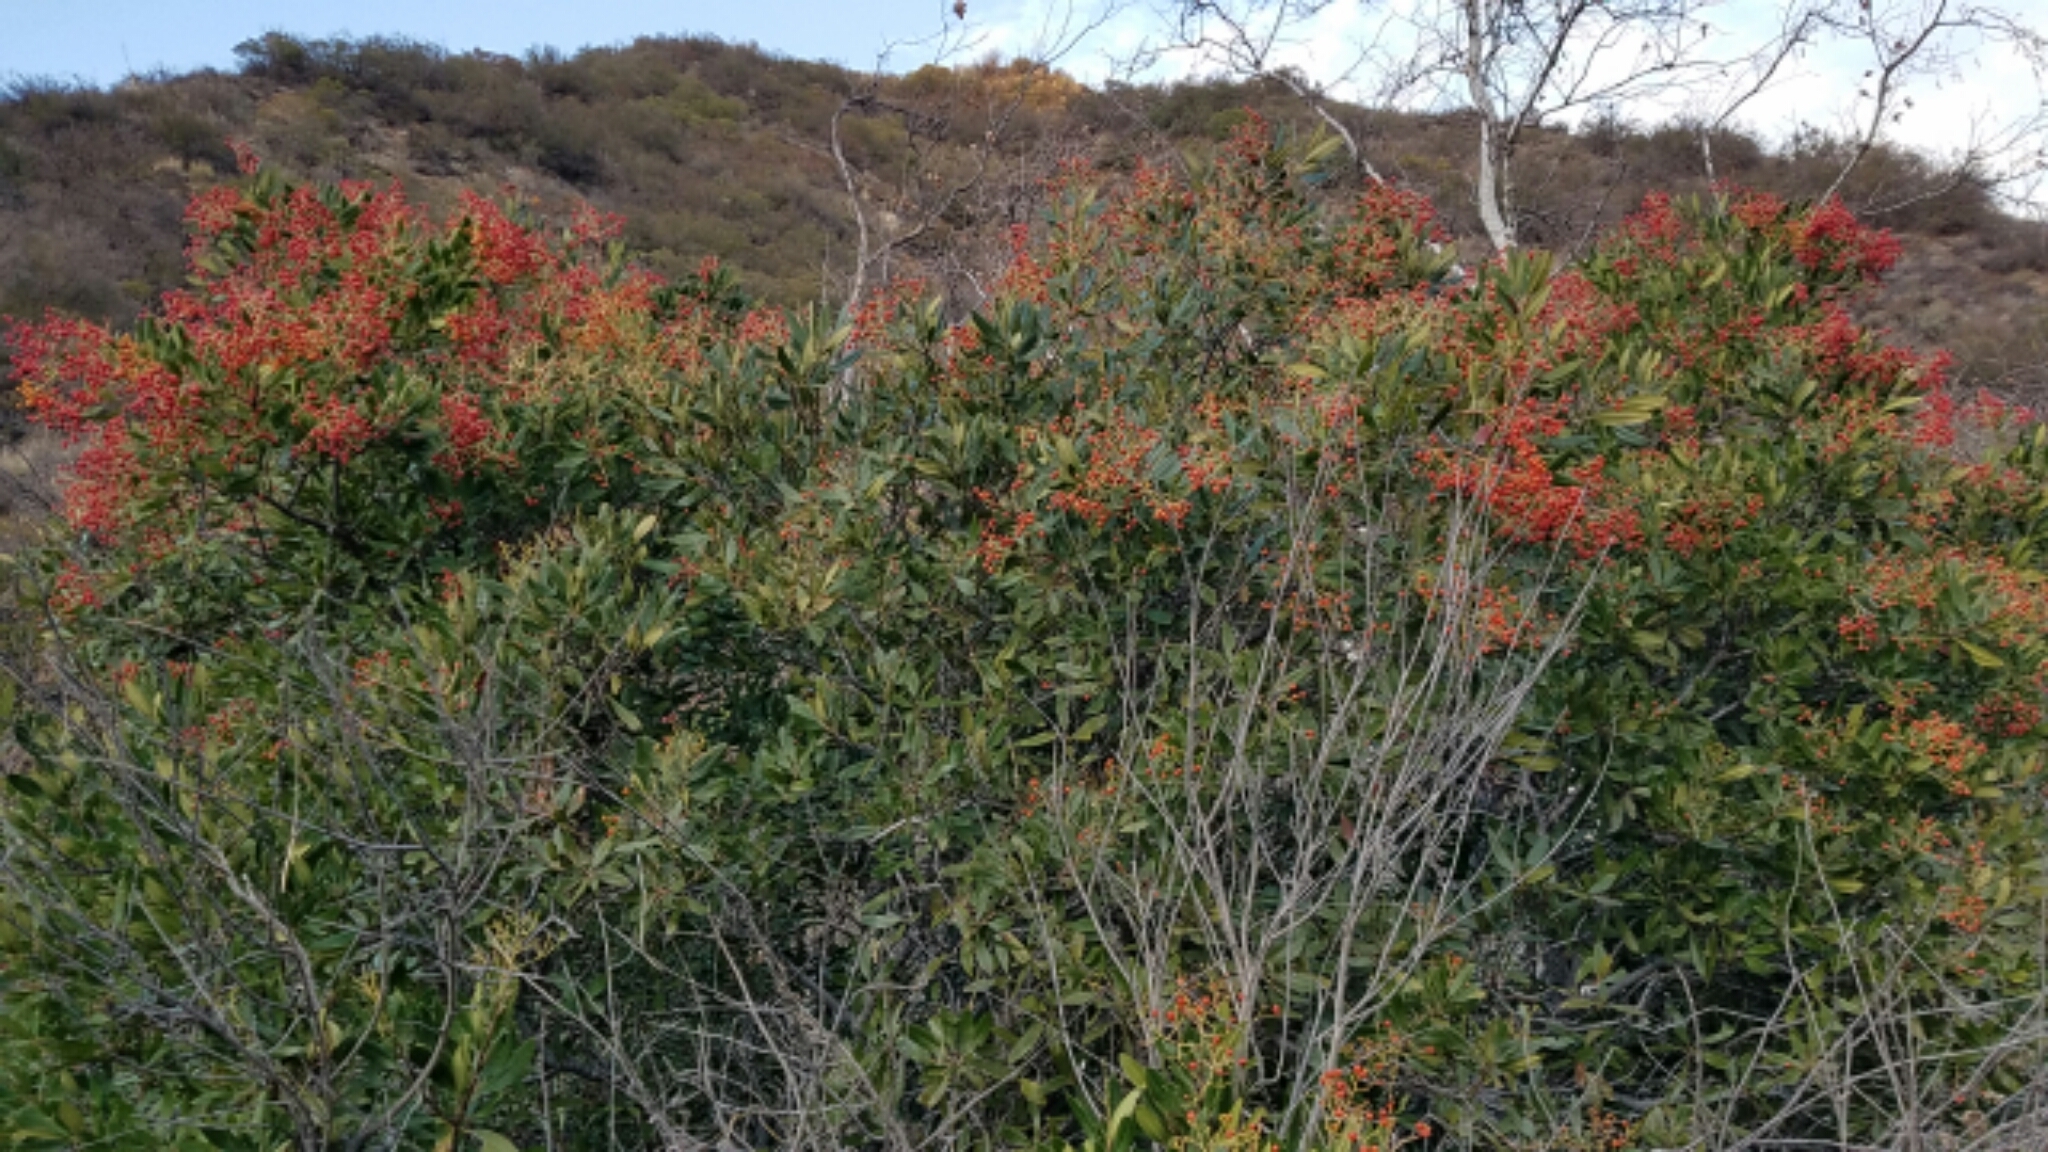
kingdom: Plantae
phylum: Tracheophyta
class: Magnoliopsida
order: Rosales
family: Rosaceae
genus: Heteromeles
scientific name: Heteromeles arbutifolia
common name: California-holly
